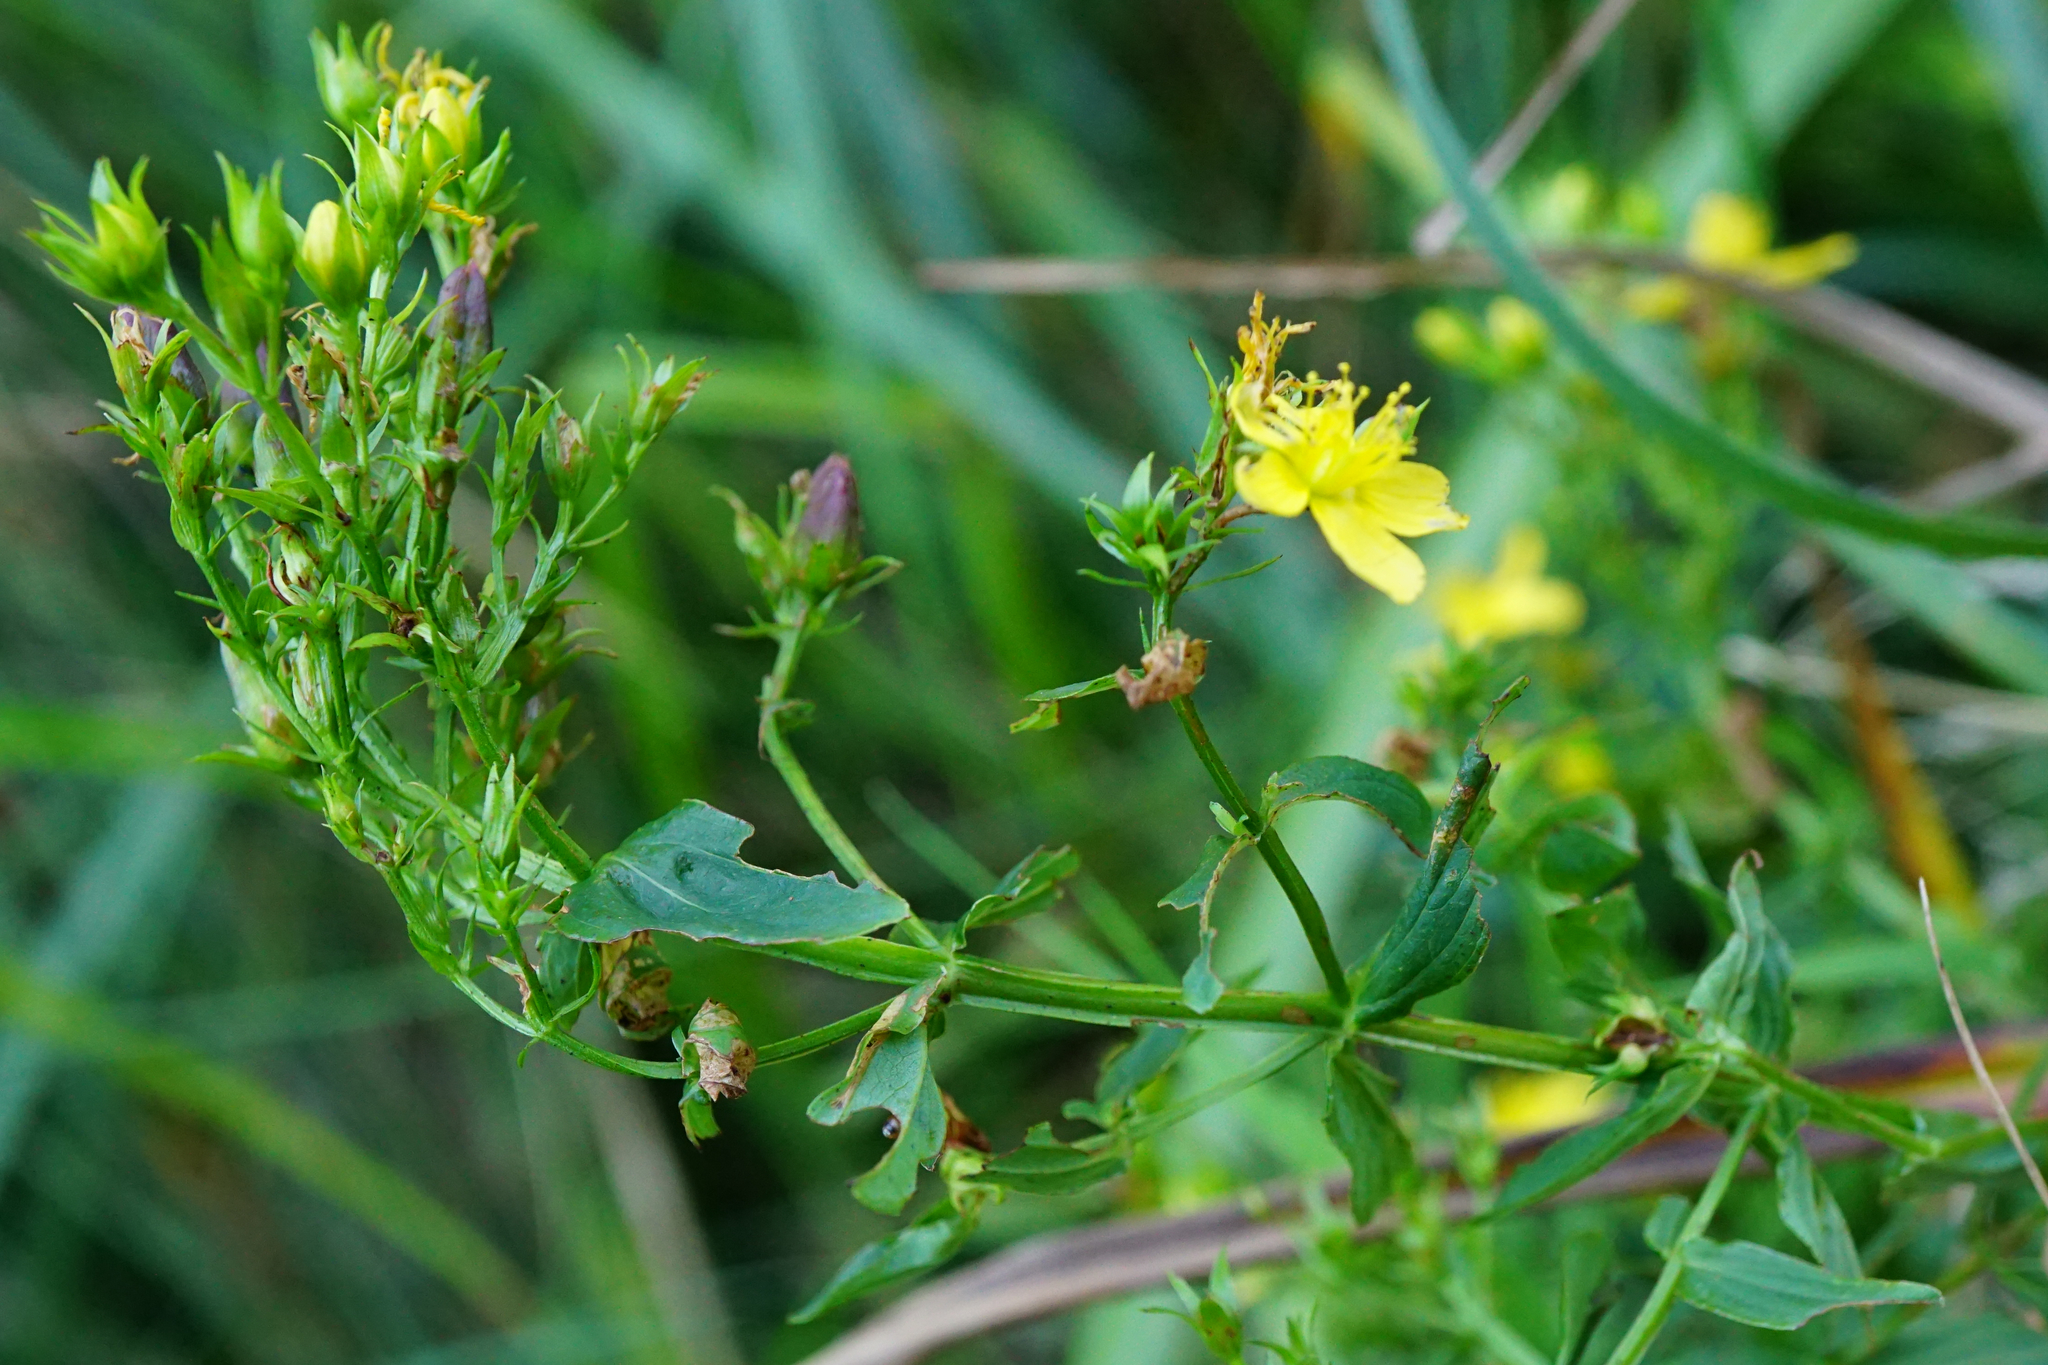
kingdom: Plantae
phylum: Tracheophyta
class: Magnoliopsida
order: Malpighiales
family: Hypericaceae
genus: Hypericum
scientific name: Hypericum tetrapterum
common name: Square-stalked st. john's-wort
